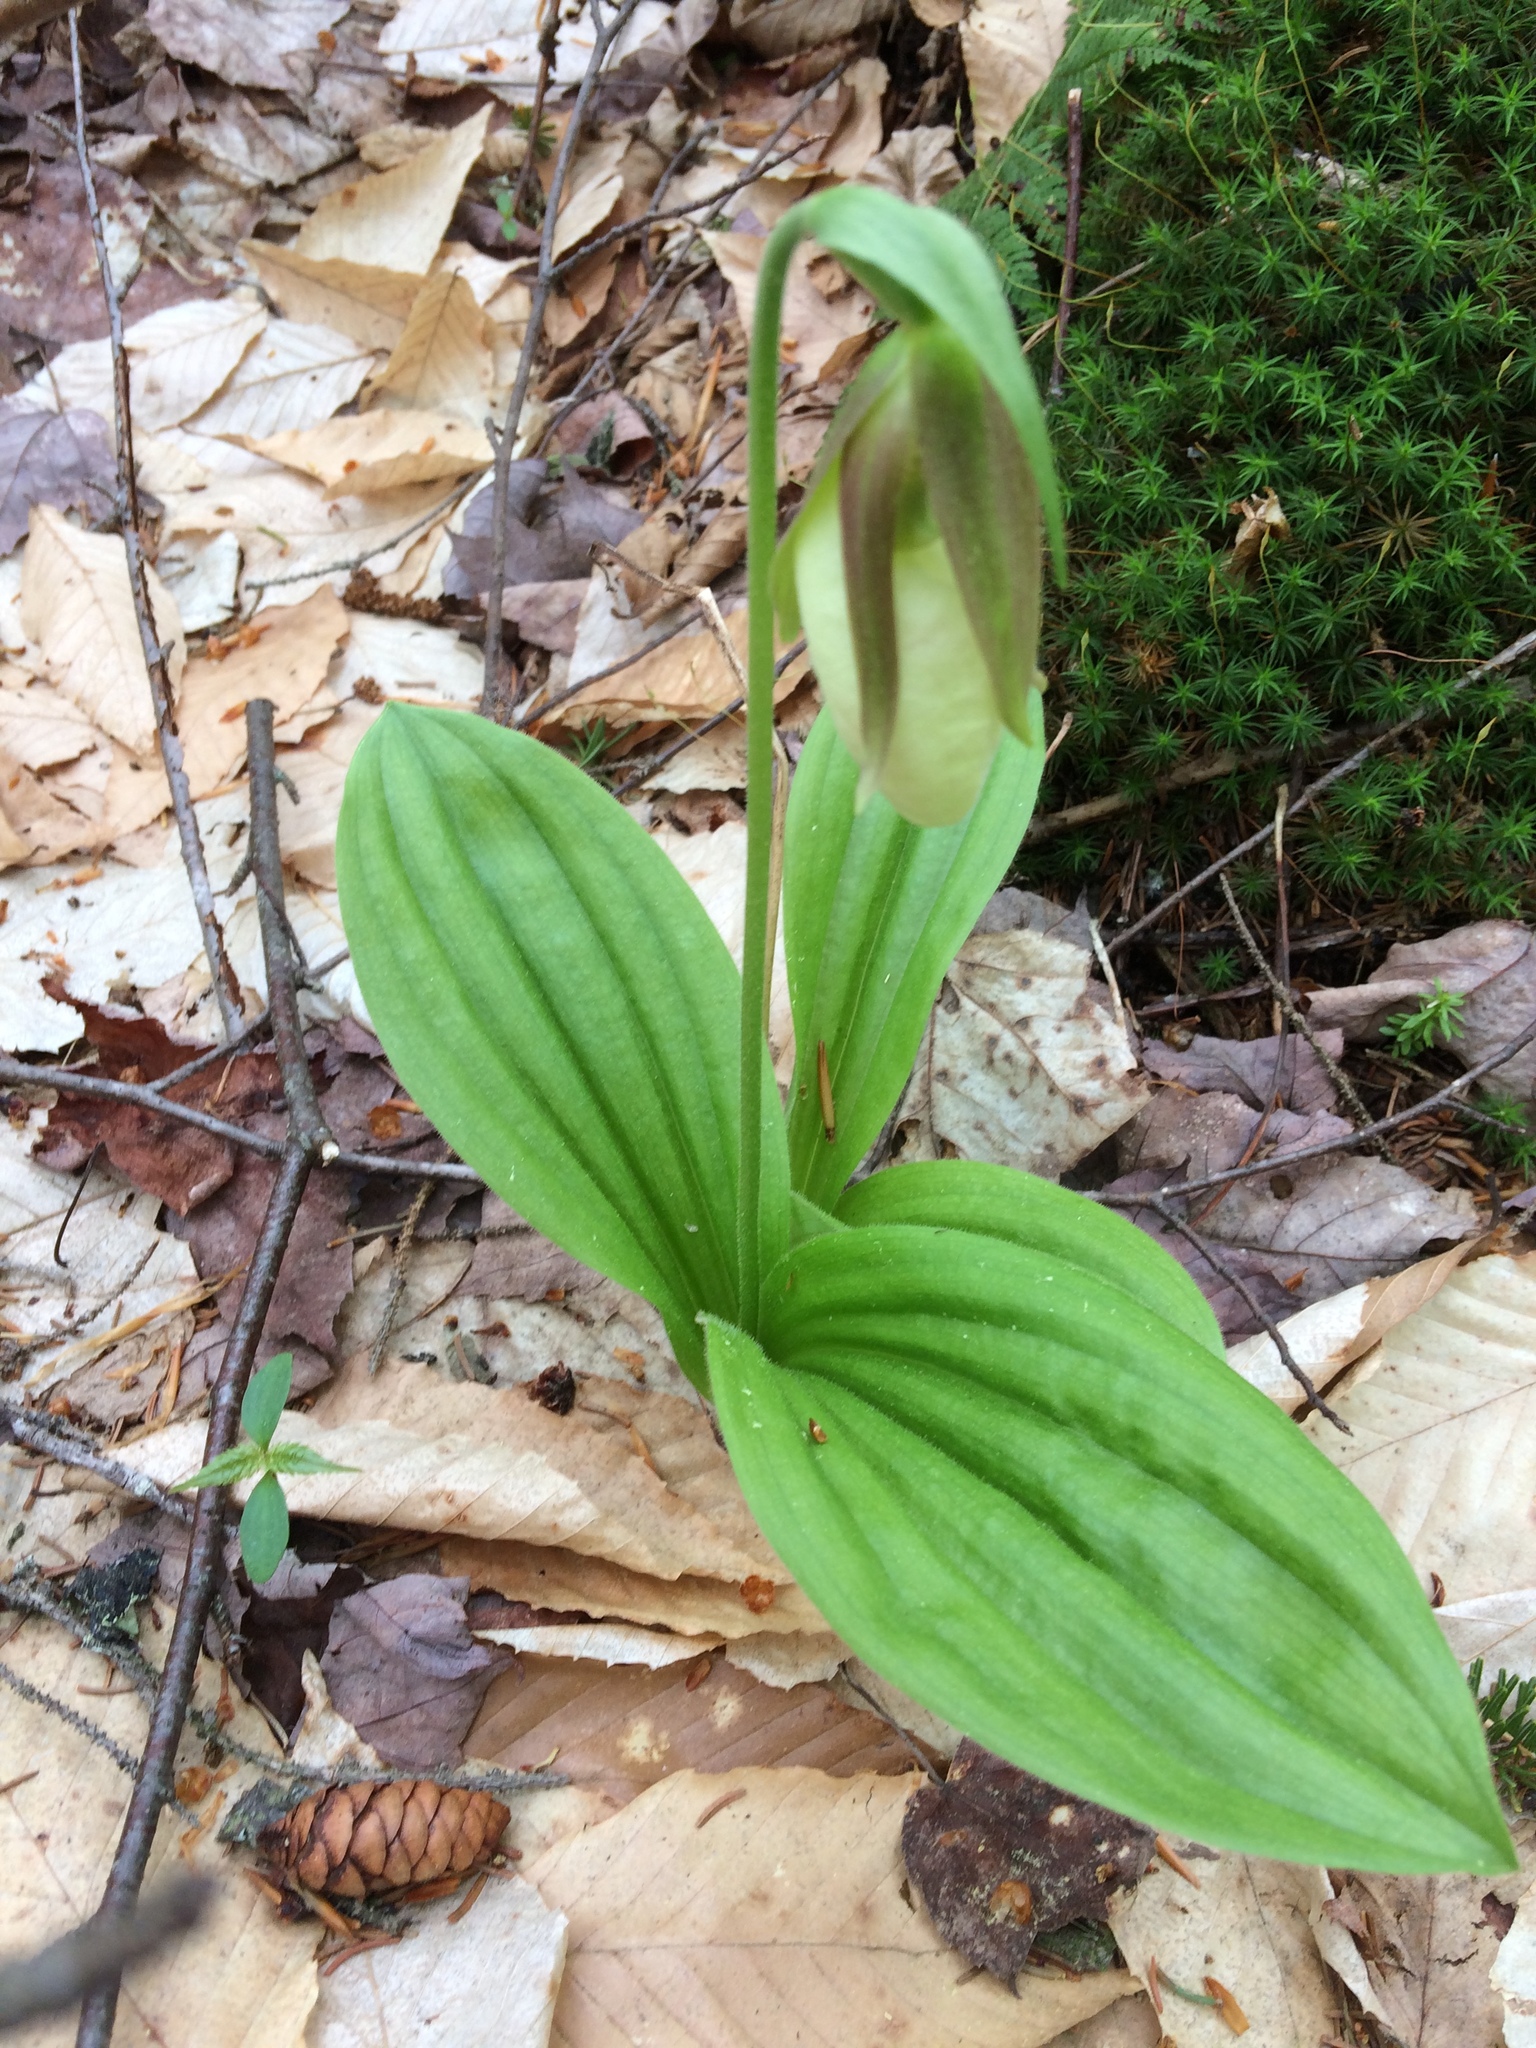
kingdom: Plantae
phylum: Tracheophyta
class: Liliopsida
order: Asparagales
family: Orchidaceae
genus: Cypripedium
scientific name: Cypripedium acaule
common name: Pink lady's-slipper
